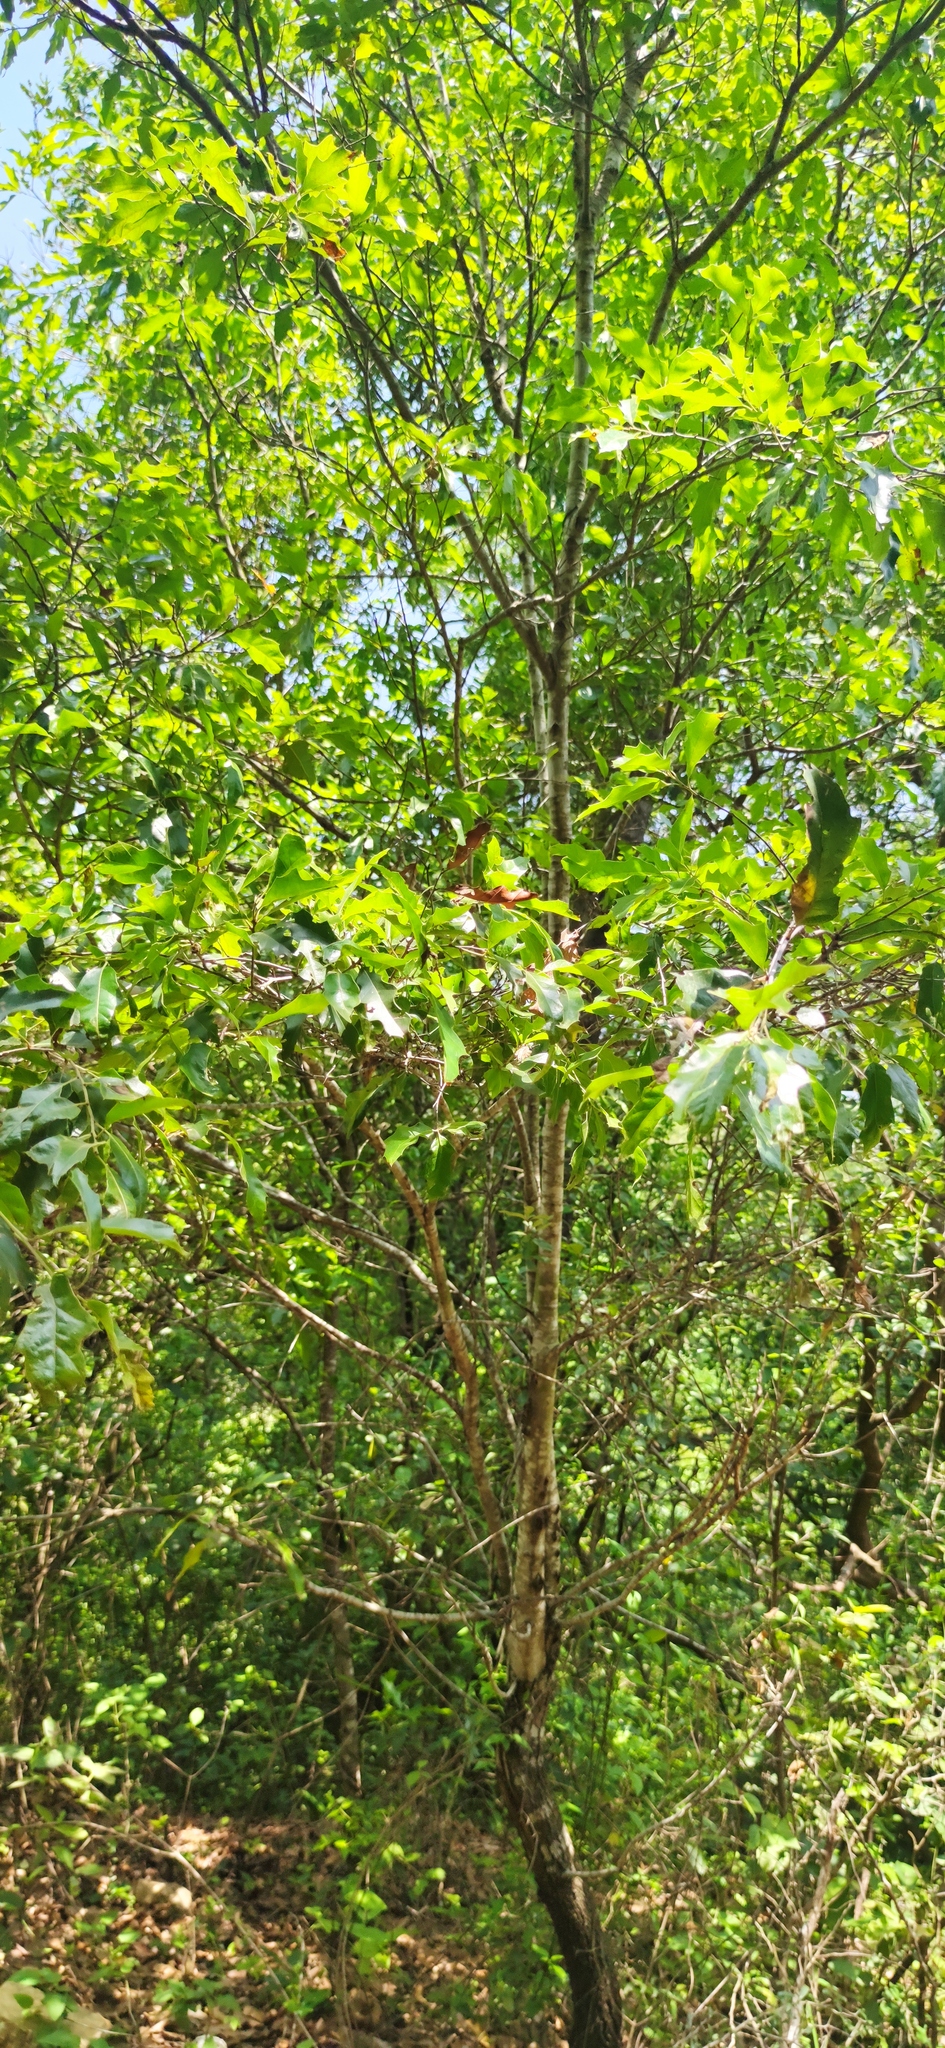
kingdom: Plantae
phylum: Tracheophyta
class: Magnoliopsida
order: Fagales
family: Fagaceae
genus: Quercus
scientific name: Quercus canbyi
